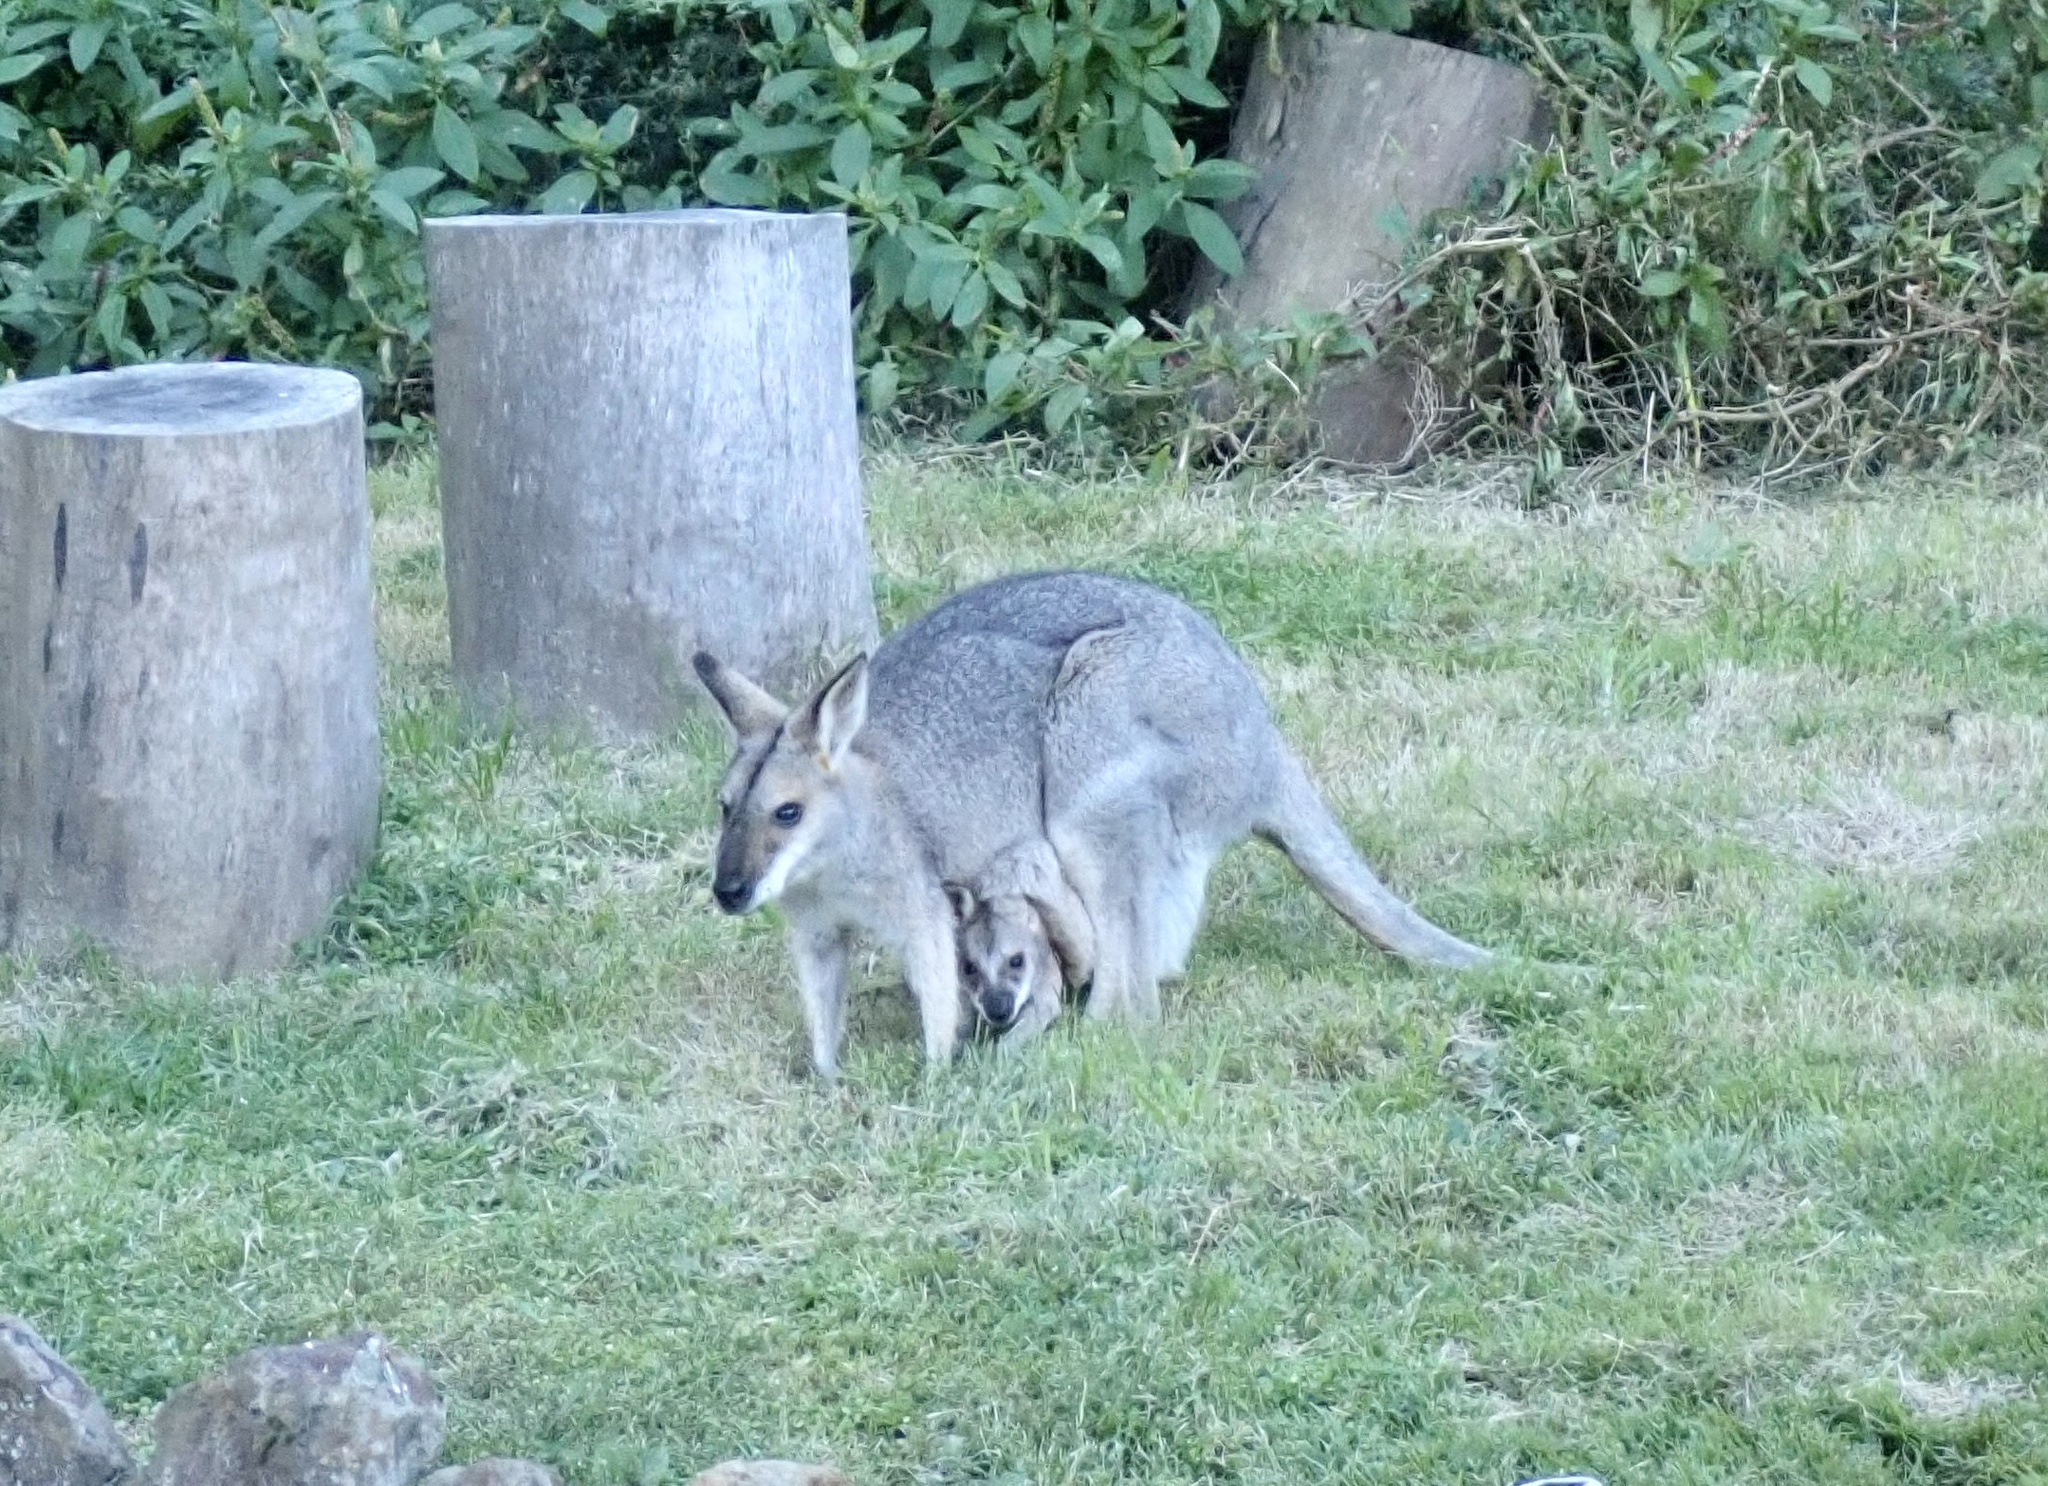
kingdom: Animalia
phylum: Chordata
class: Mammalia
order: Diprotodontia
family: Macropodidae
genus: Notamacropus
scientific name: Notamacropus rufogriseus
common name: Red-necked wallaby
